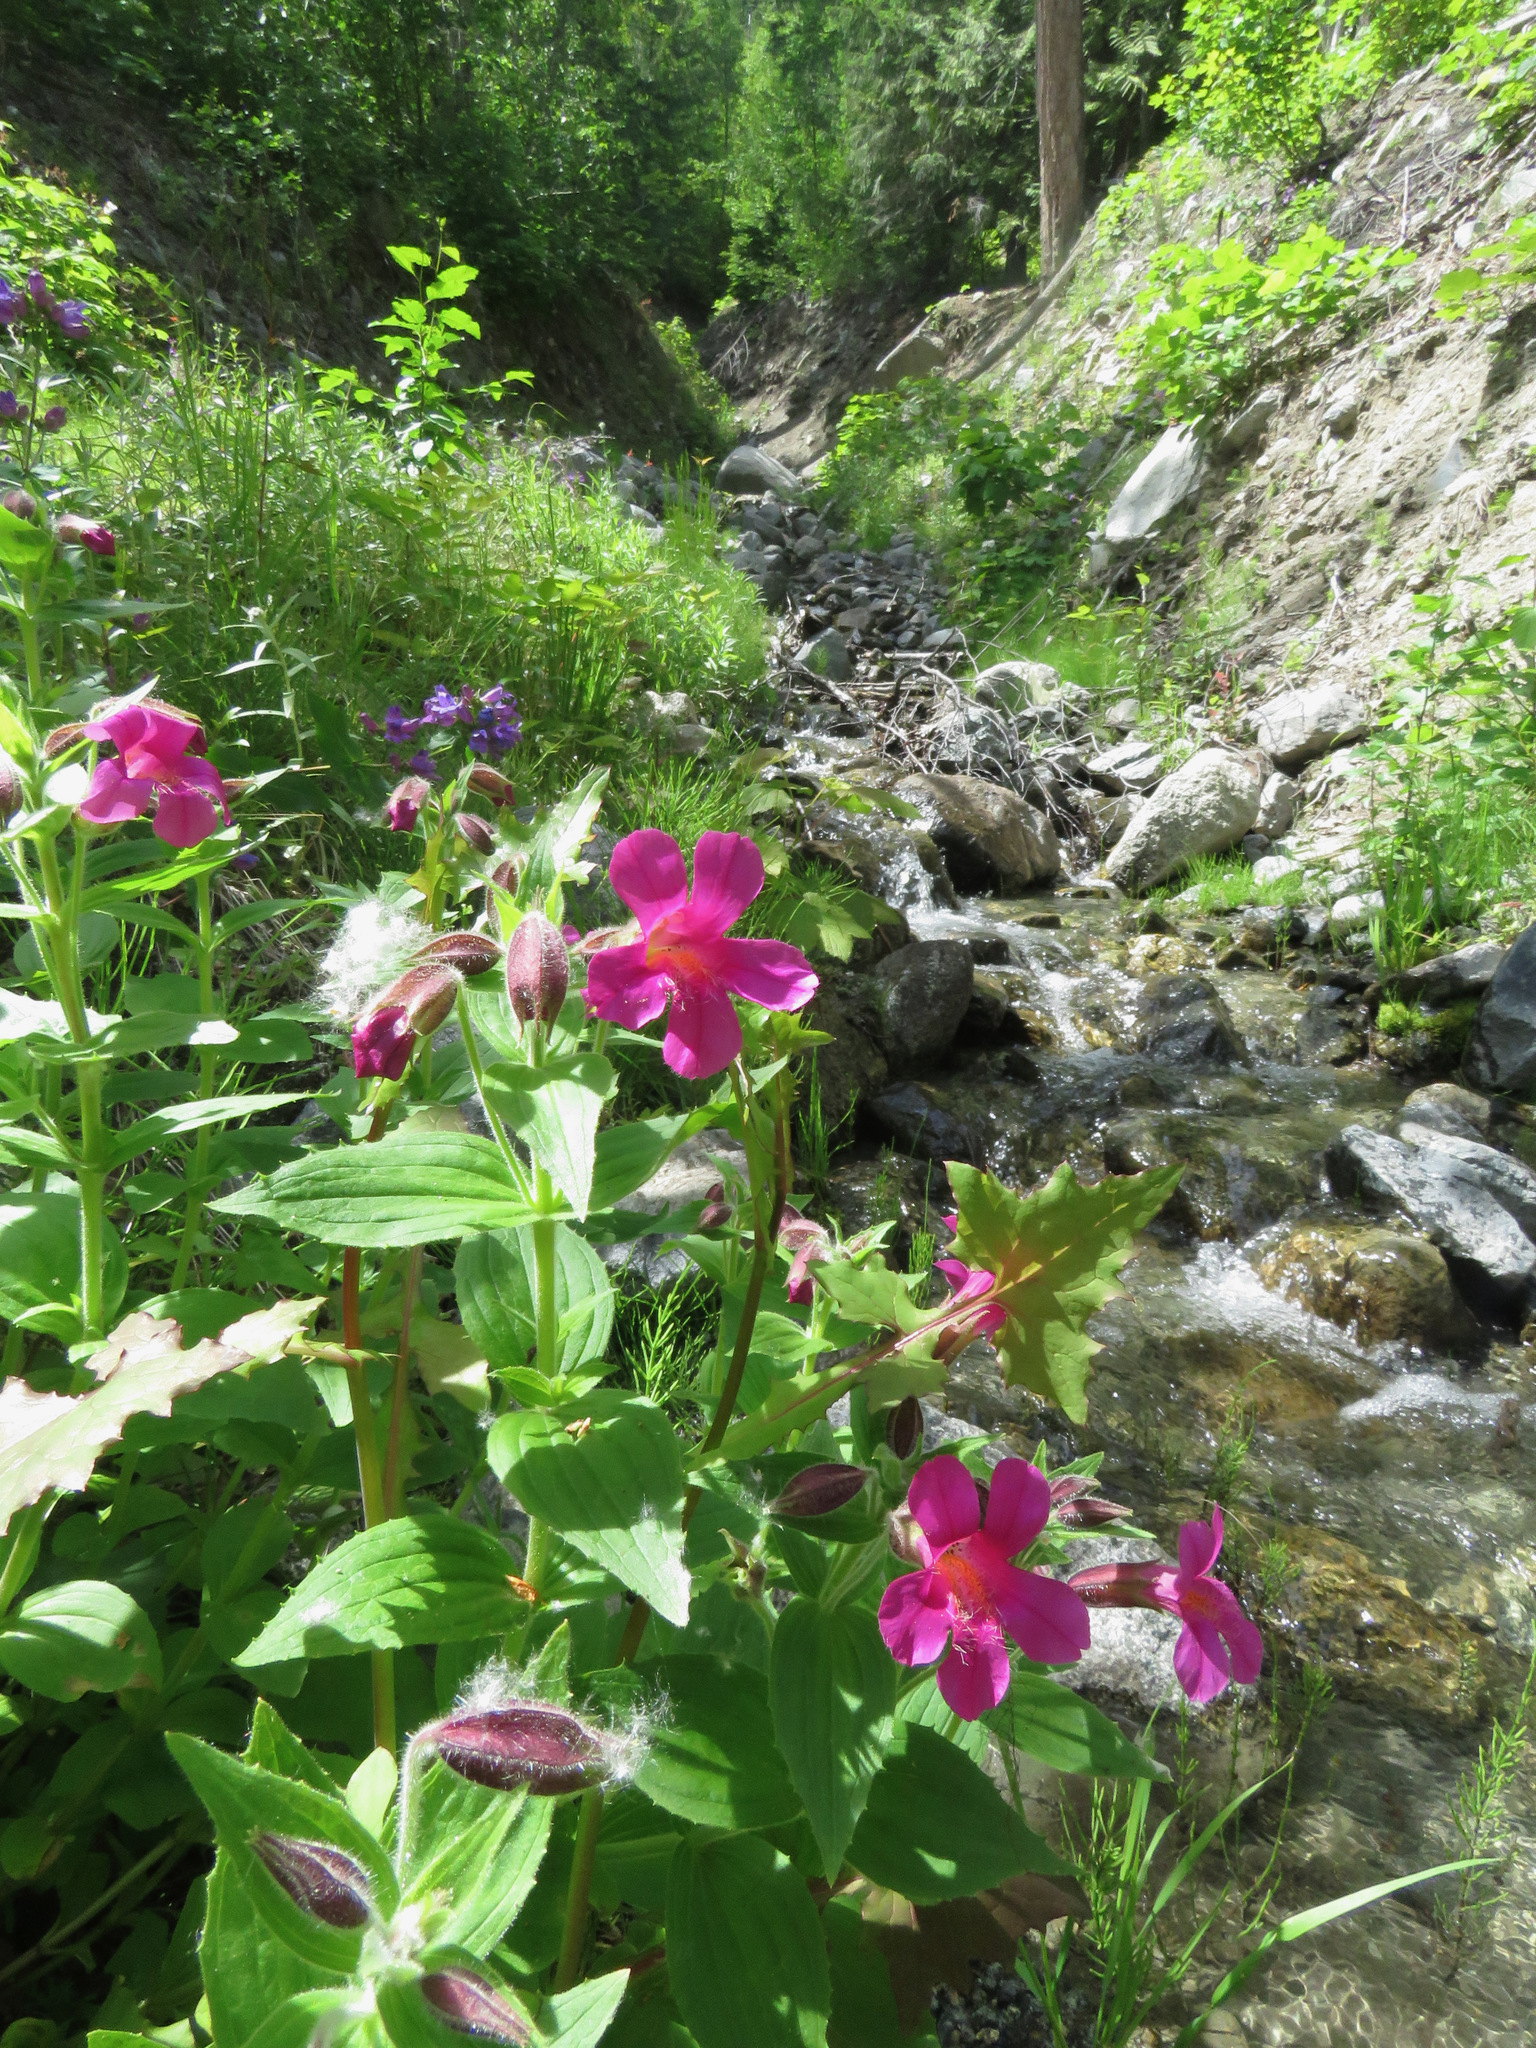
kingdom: Plantae
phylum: Tracheophyta
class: Magnoliopsida
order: Lamiales
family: Phrymaceae
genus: Erythranthe
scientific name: Erythranthe lewisii
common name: Lewis's monkey-flower
